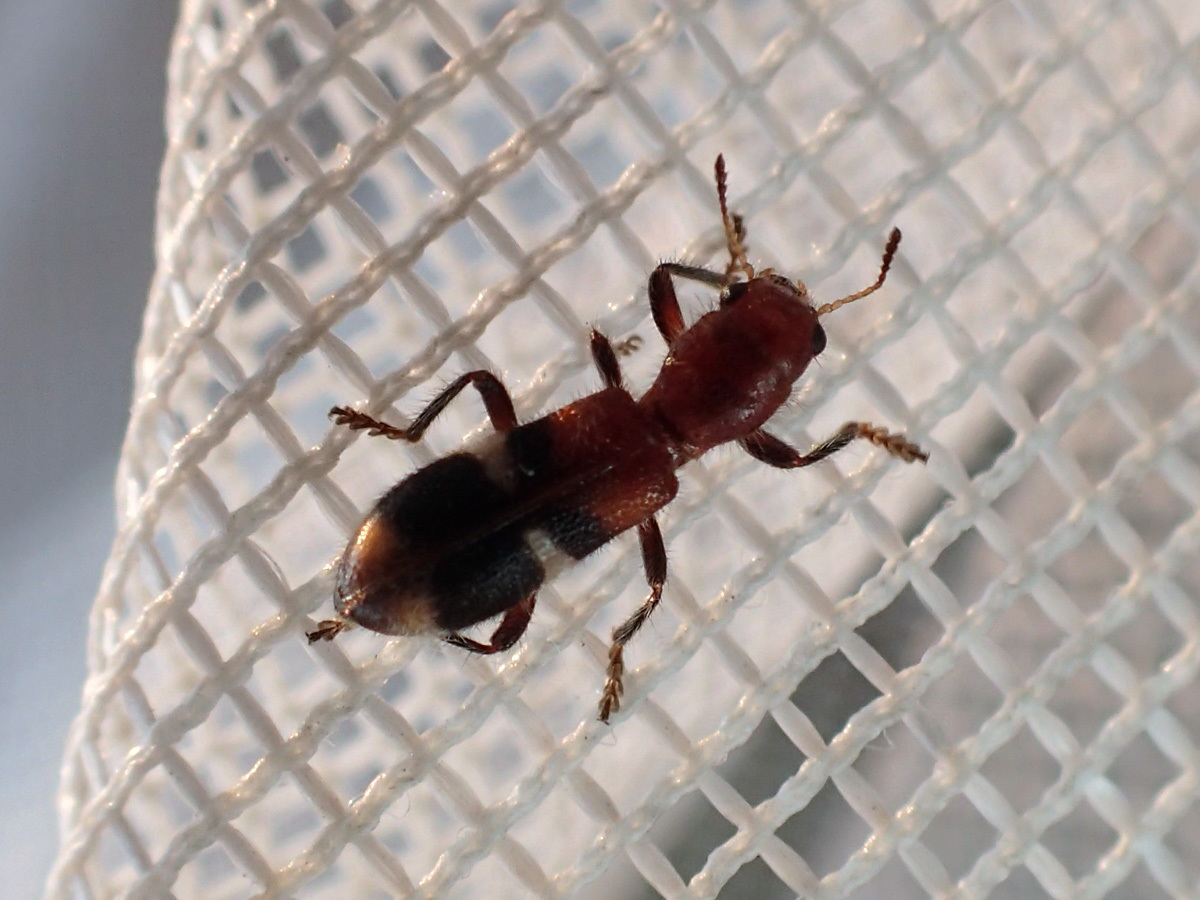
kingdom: Animalia
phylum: Arthropoda
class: Insecta
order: Coleoptera
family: Cleridae
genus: Enoclerus
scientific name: Enoclerus rosmarus
